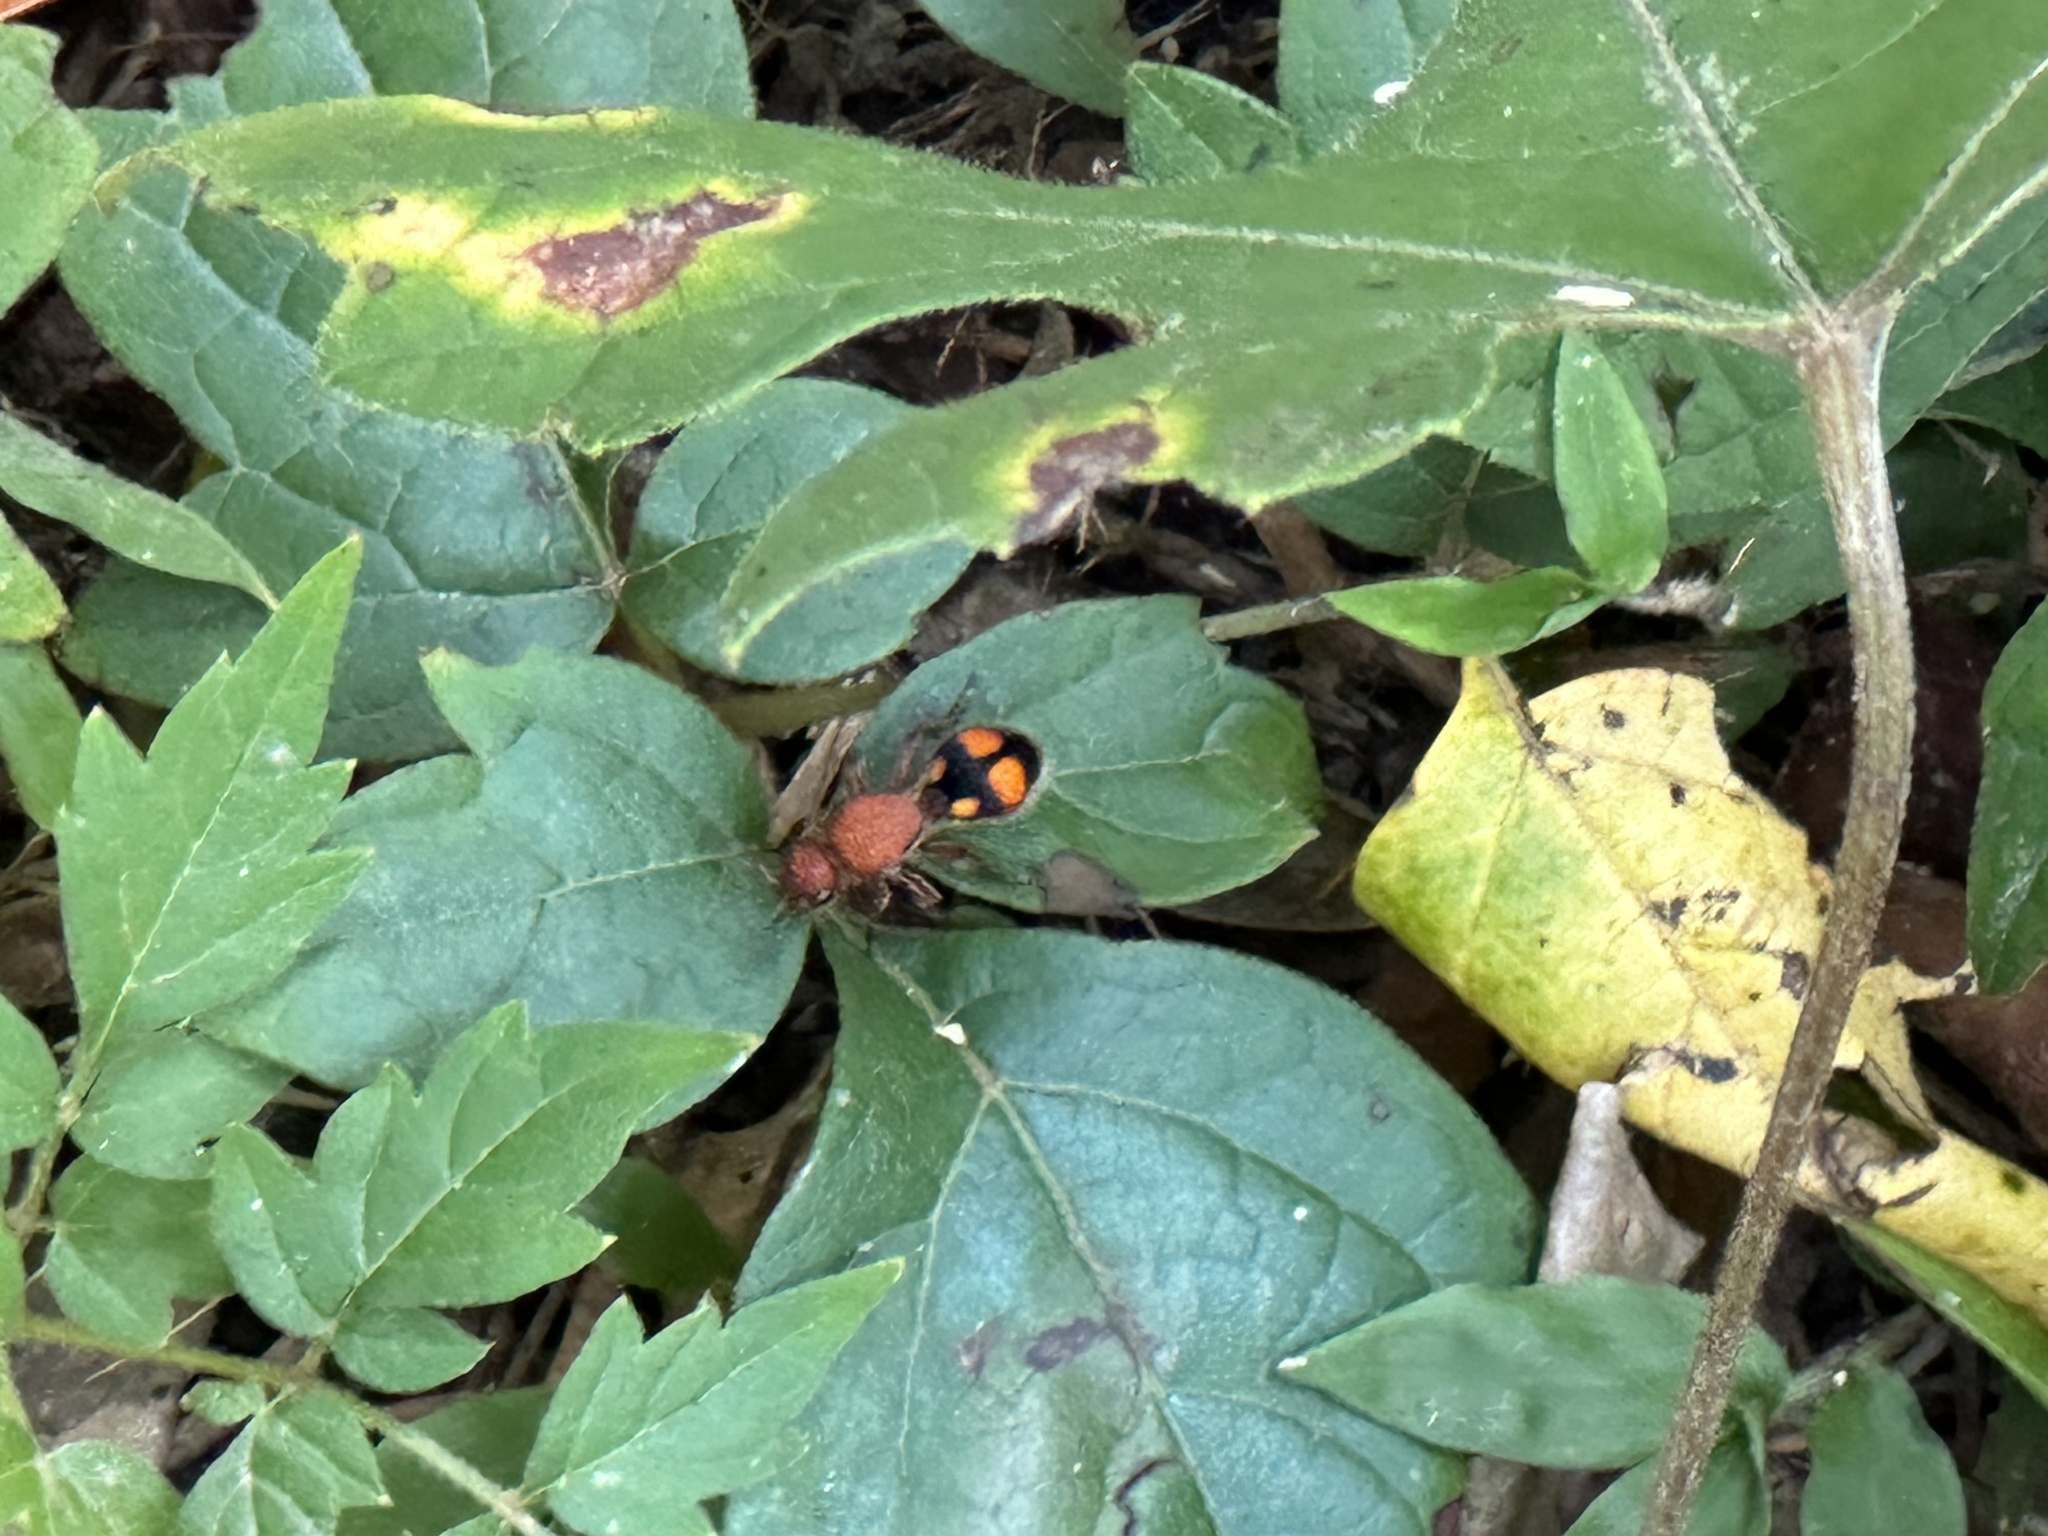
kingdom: Animalia
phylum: Arthropoda
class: Insecta
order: Hymenoptera
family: Mutillidae
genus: Dasymutilla
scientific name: Dasymutilla
